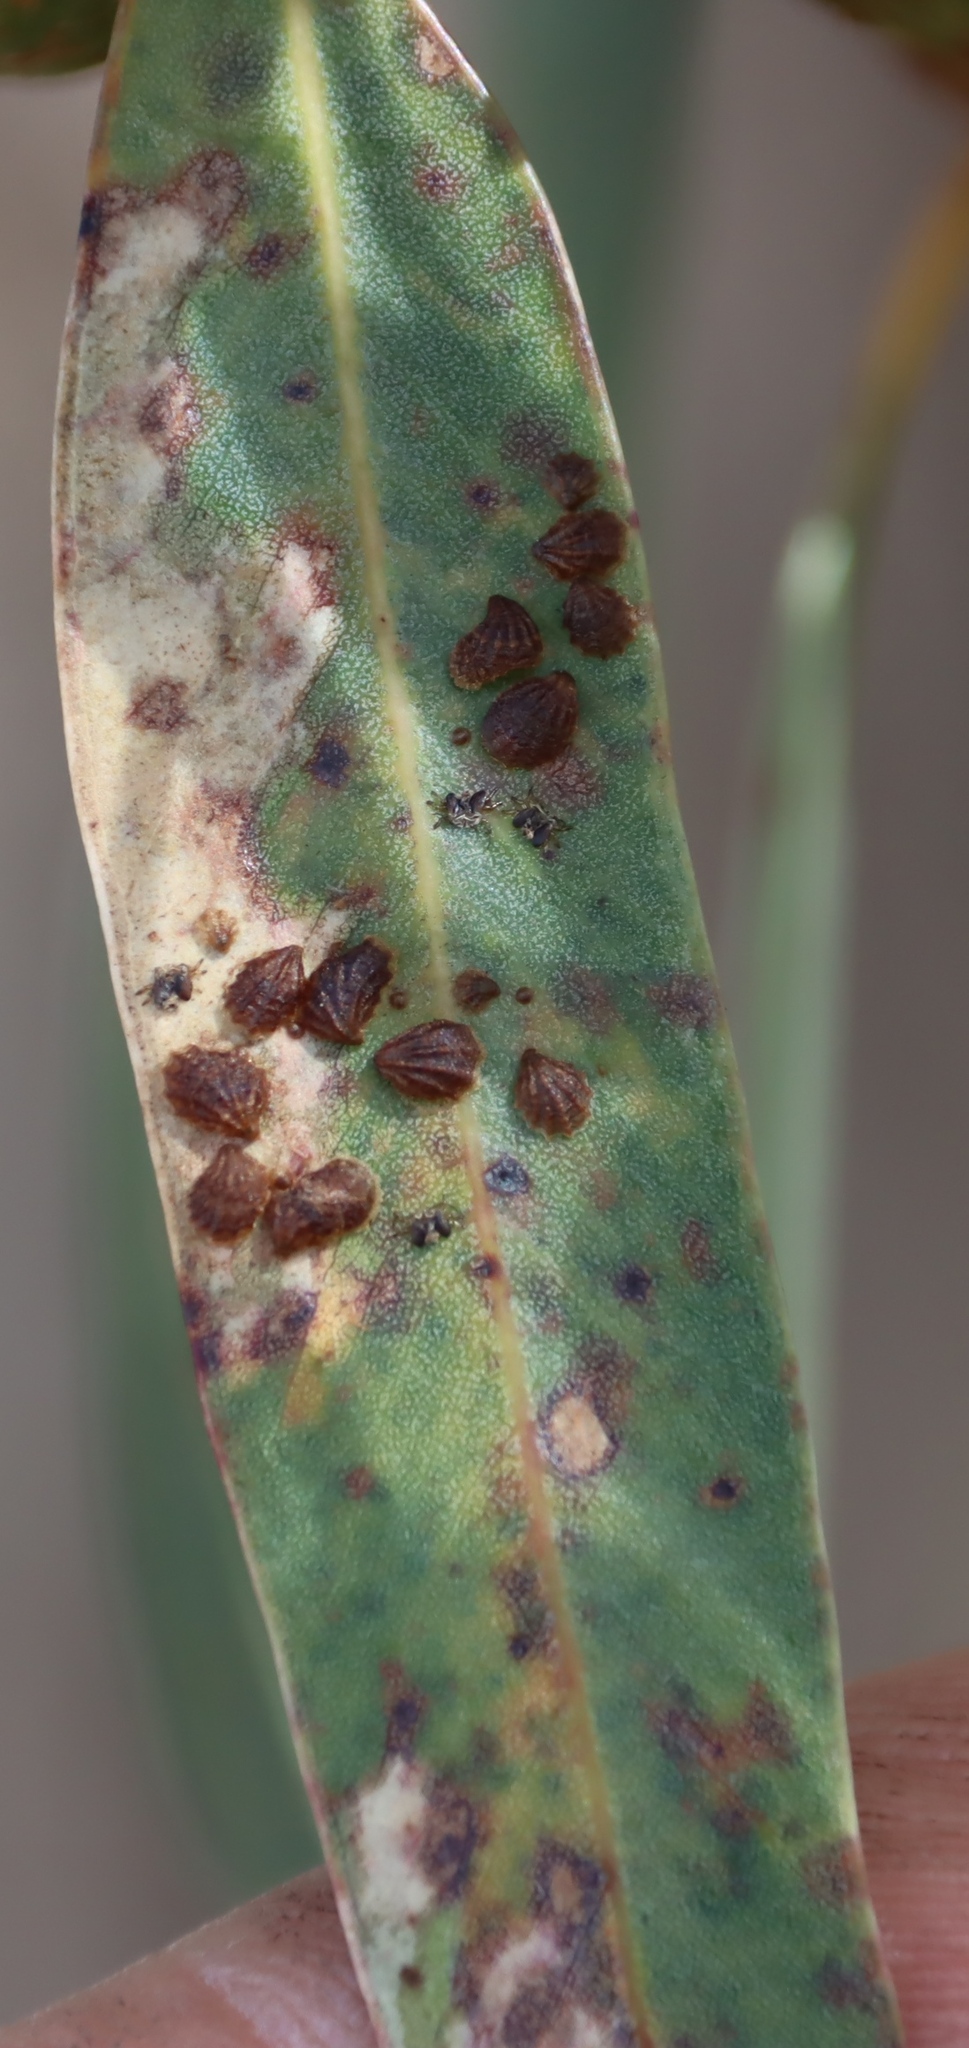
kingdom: Animalia
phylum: Arthropoda
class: Insecta
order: Hemiptera
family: Aphalaridae
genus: Spondyliaspis
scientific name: Spondyliaspis plicatuloides
